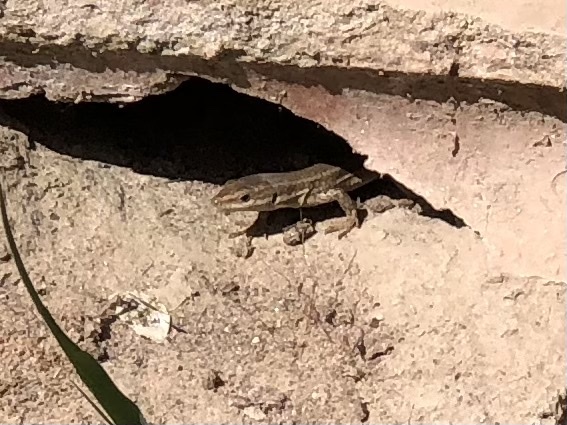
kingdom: Animalia
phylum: Chordata
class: Squamata
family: Lacertidae
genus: Podarcis
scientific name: Podarcis liolepis
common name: Catalonian wall lizard
